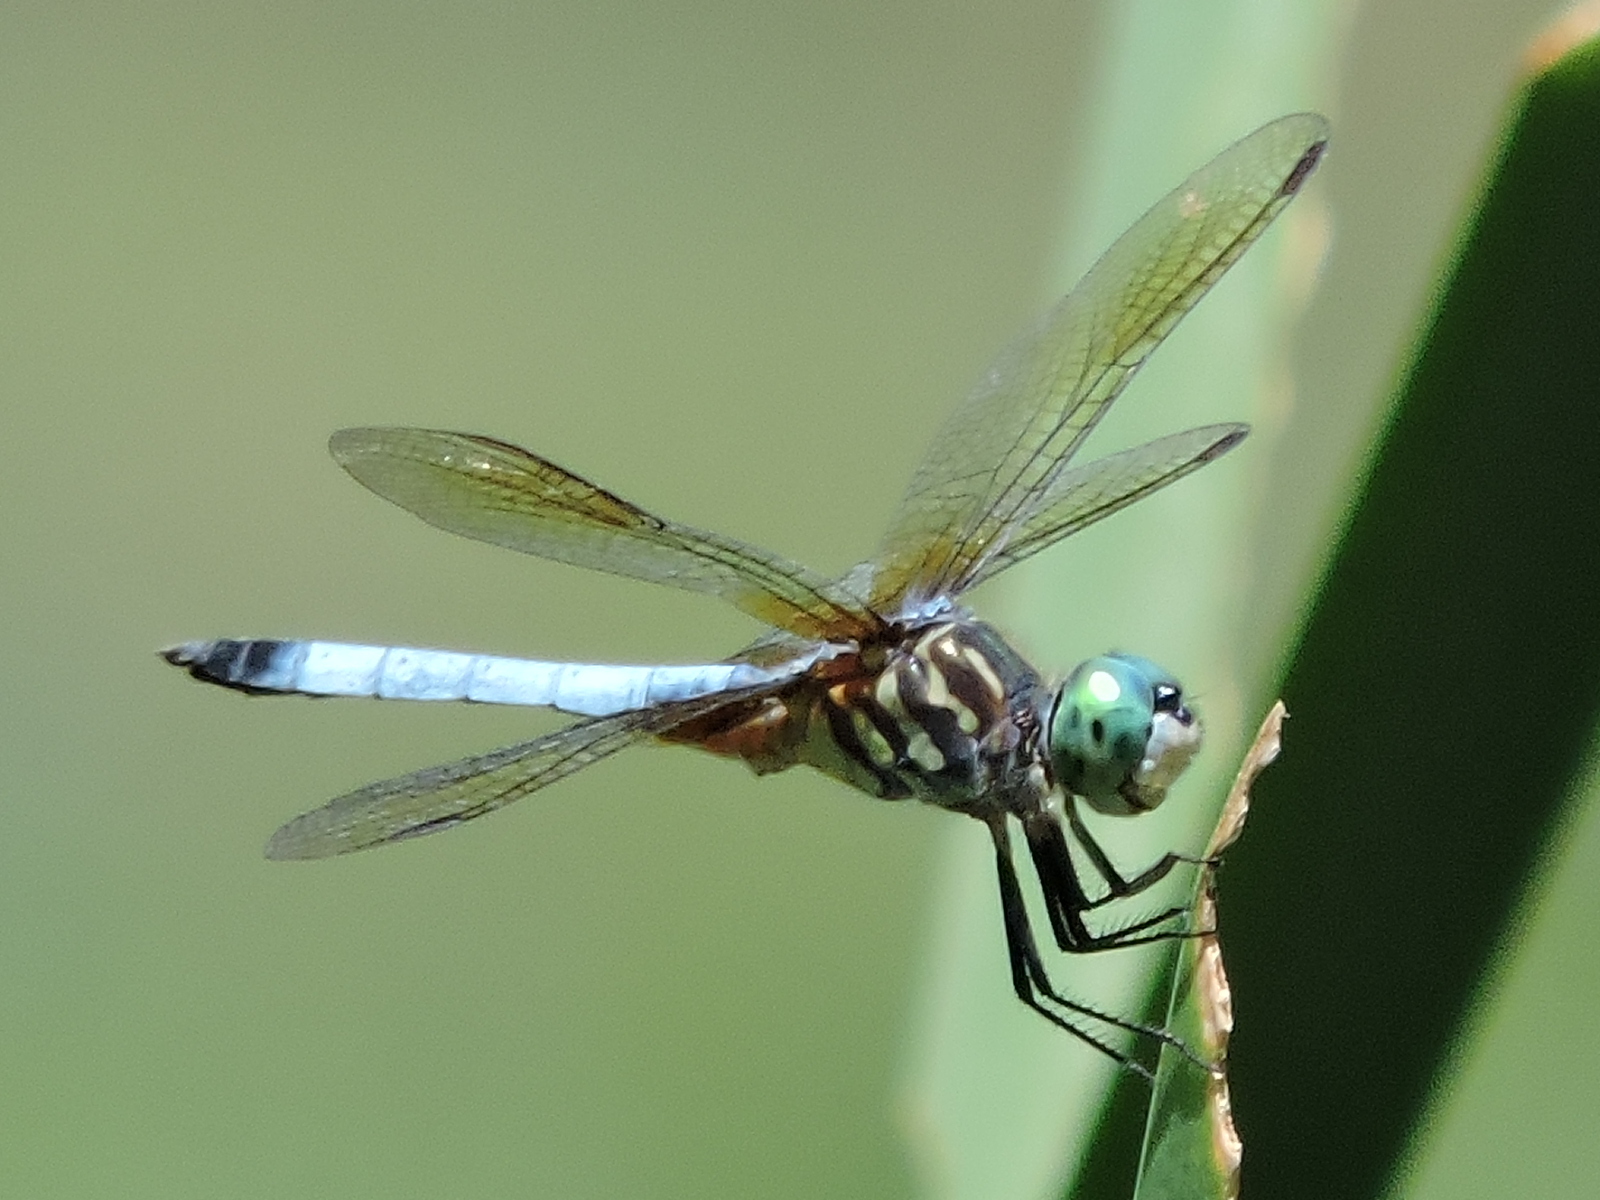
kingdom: Animalia
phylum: Arthropoda
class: Insecta
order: Odonata
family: Libellulidae
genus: Pachydiplax
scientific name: Pachydiplax longipennis
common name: Blue dasher
